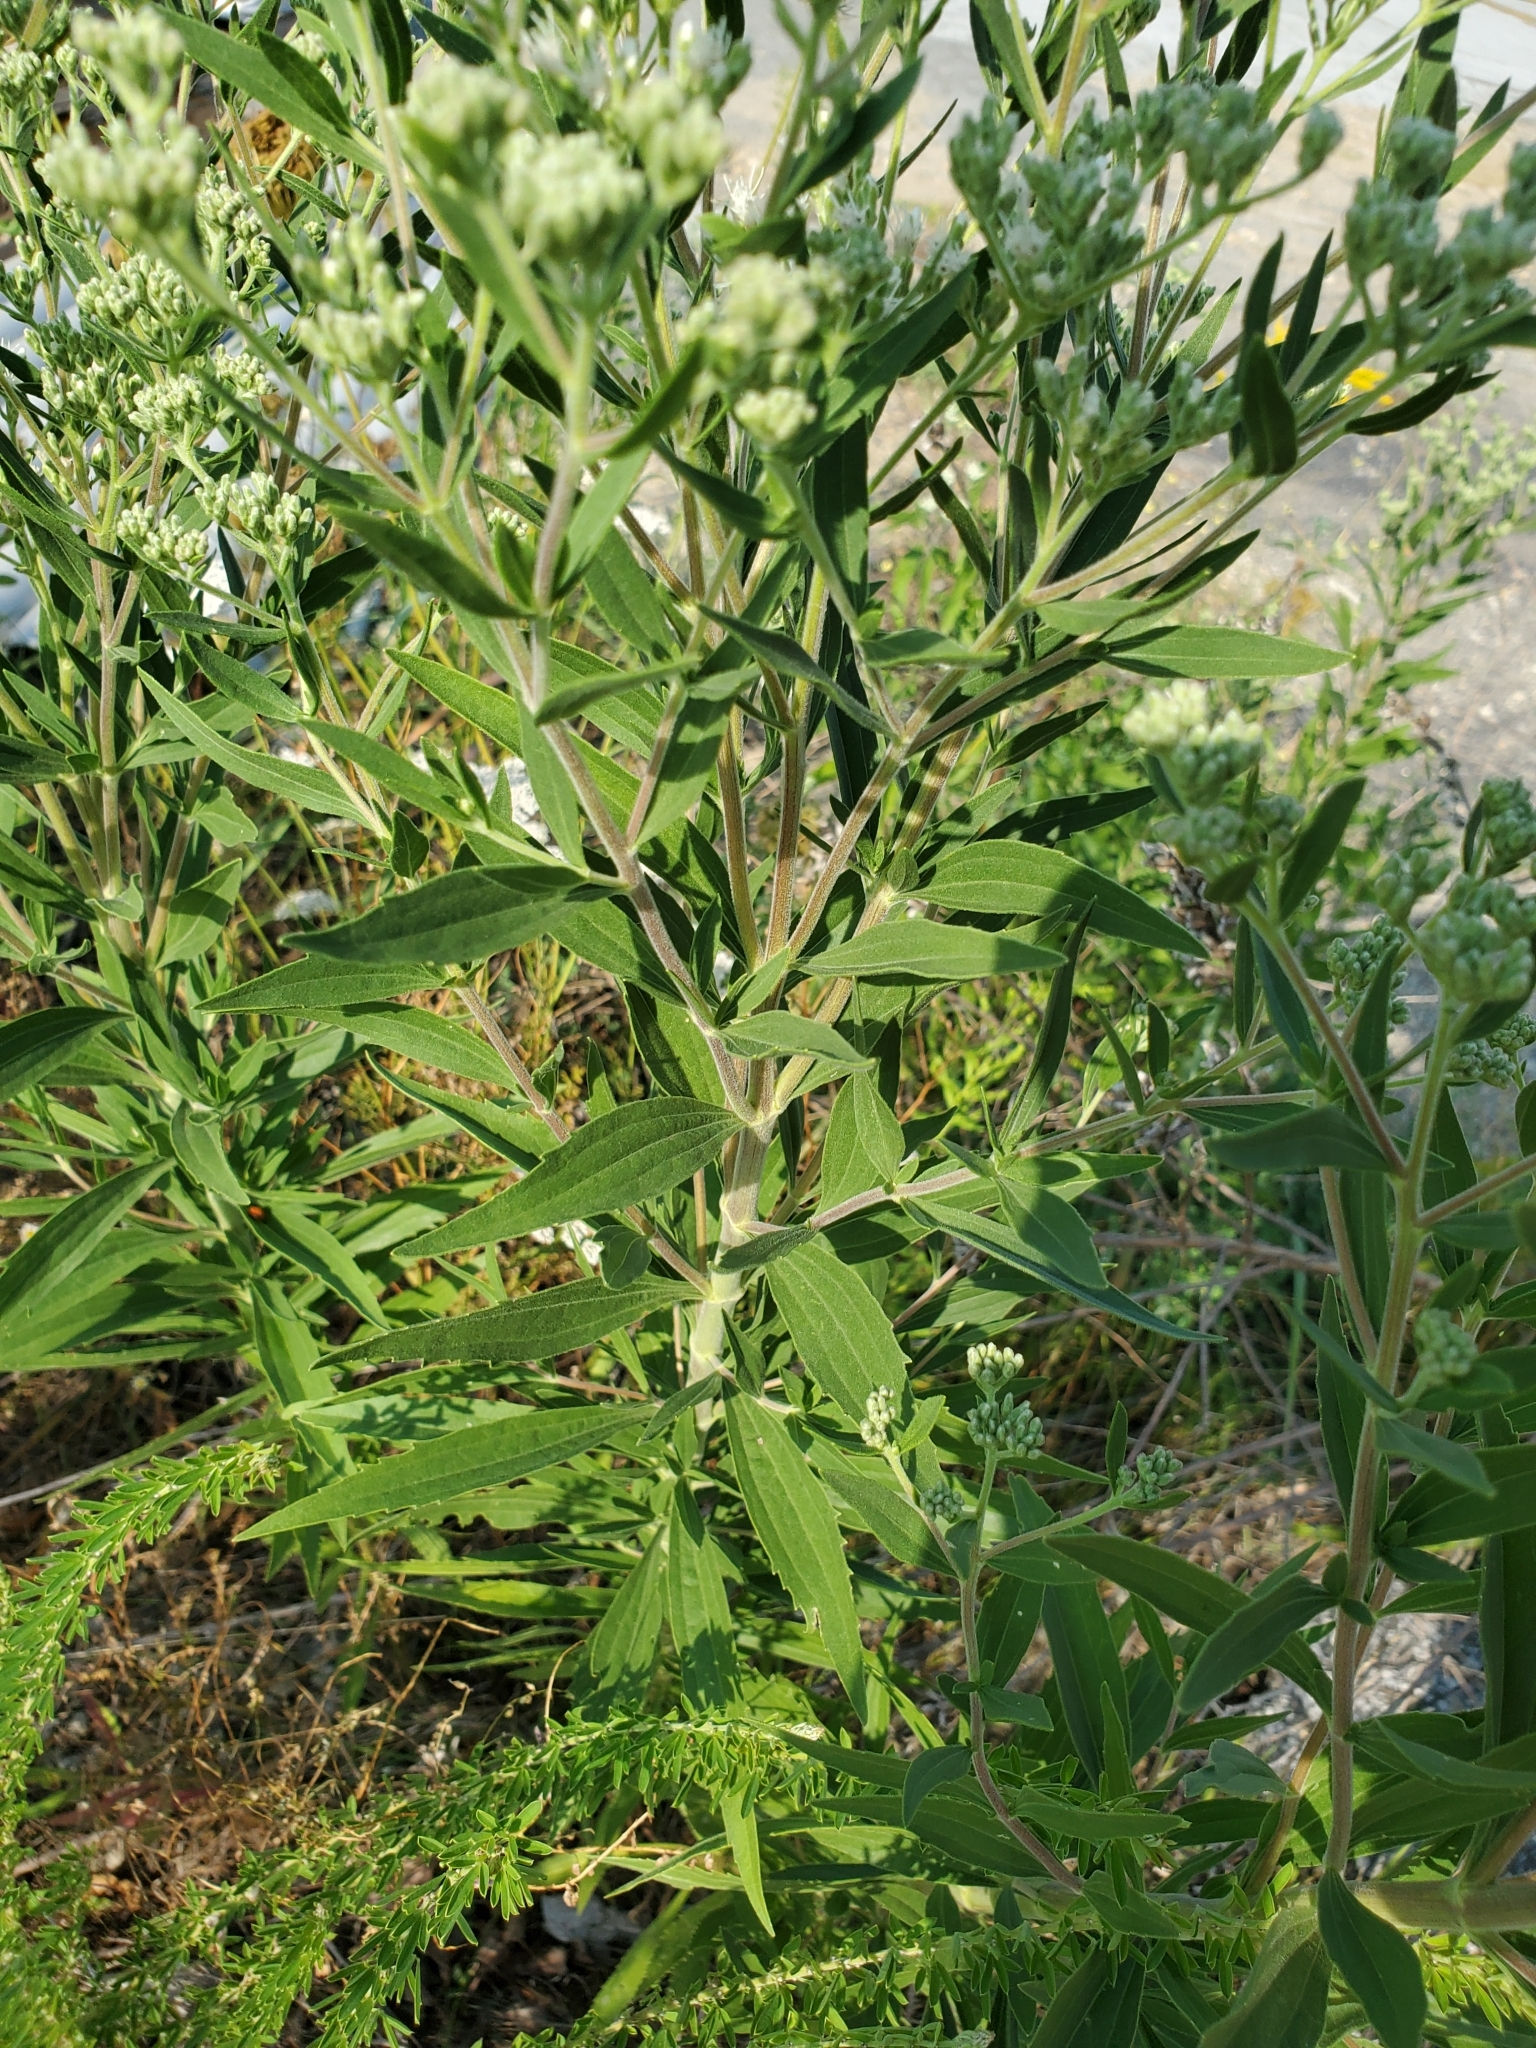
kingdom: Plantae
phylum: Tracheophyta
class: Magnoliopsida
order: Asterales
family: Asteraceae
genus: Eupatorium
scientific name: Eupatorium altissimum
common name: Tall thoroughwort
